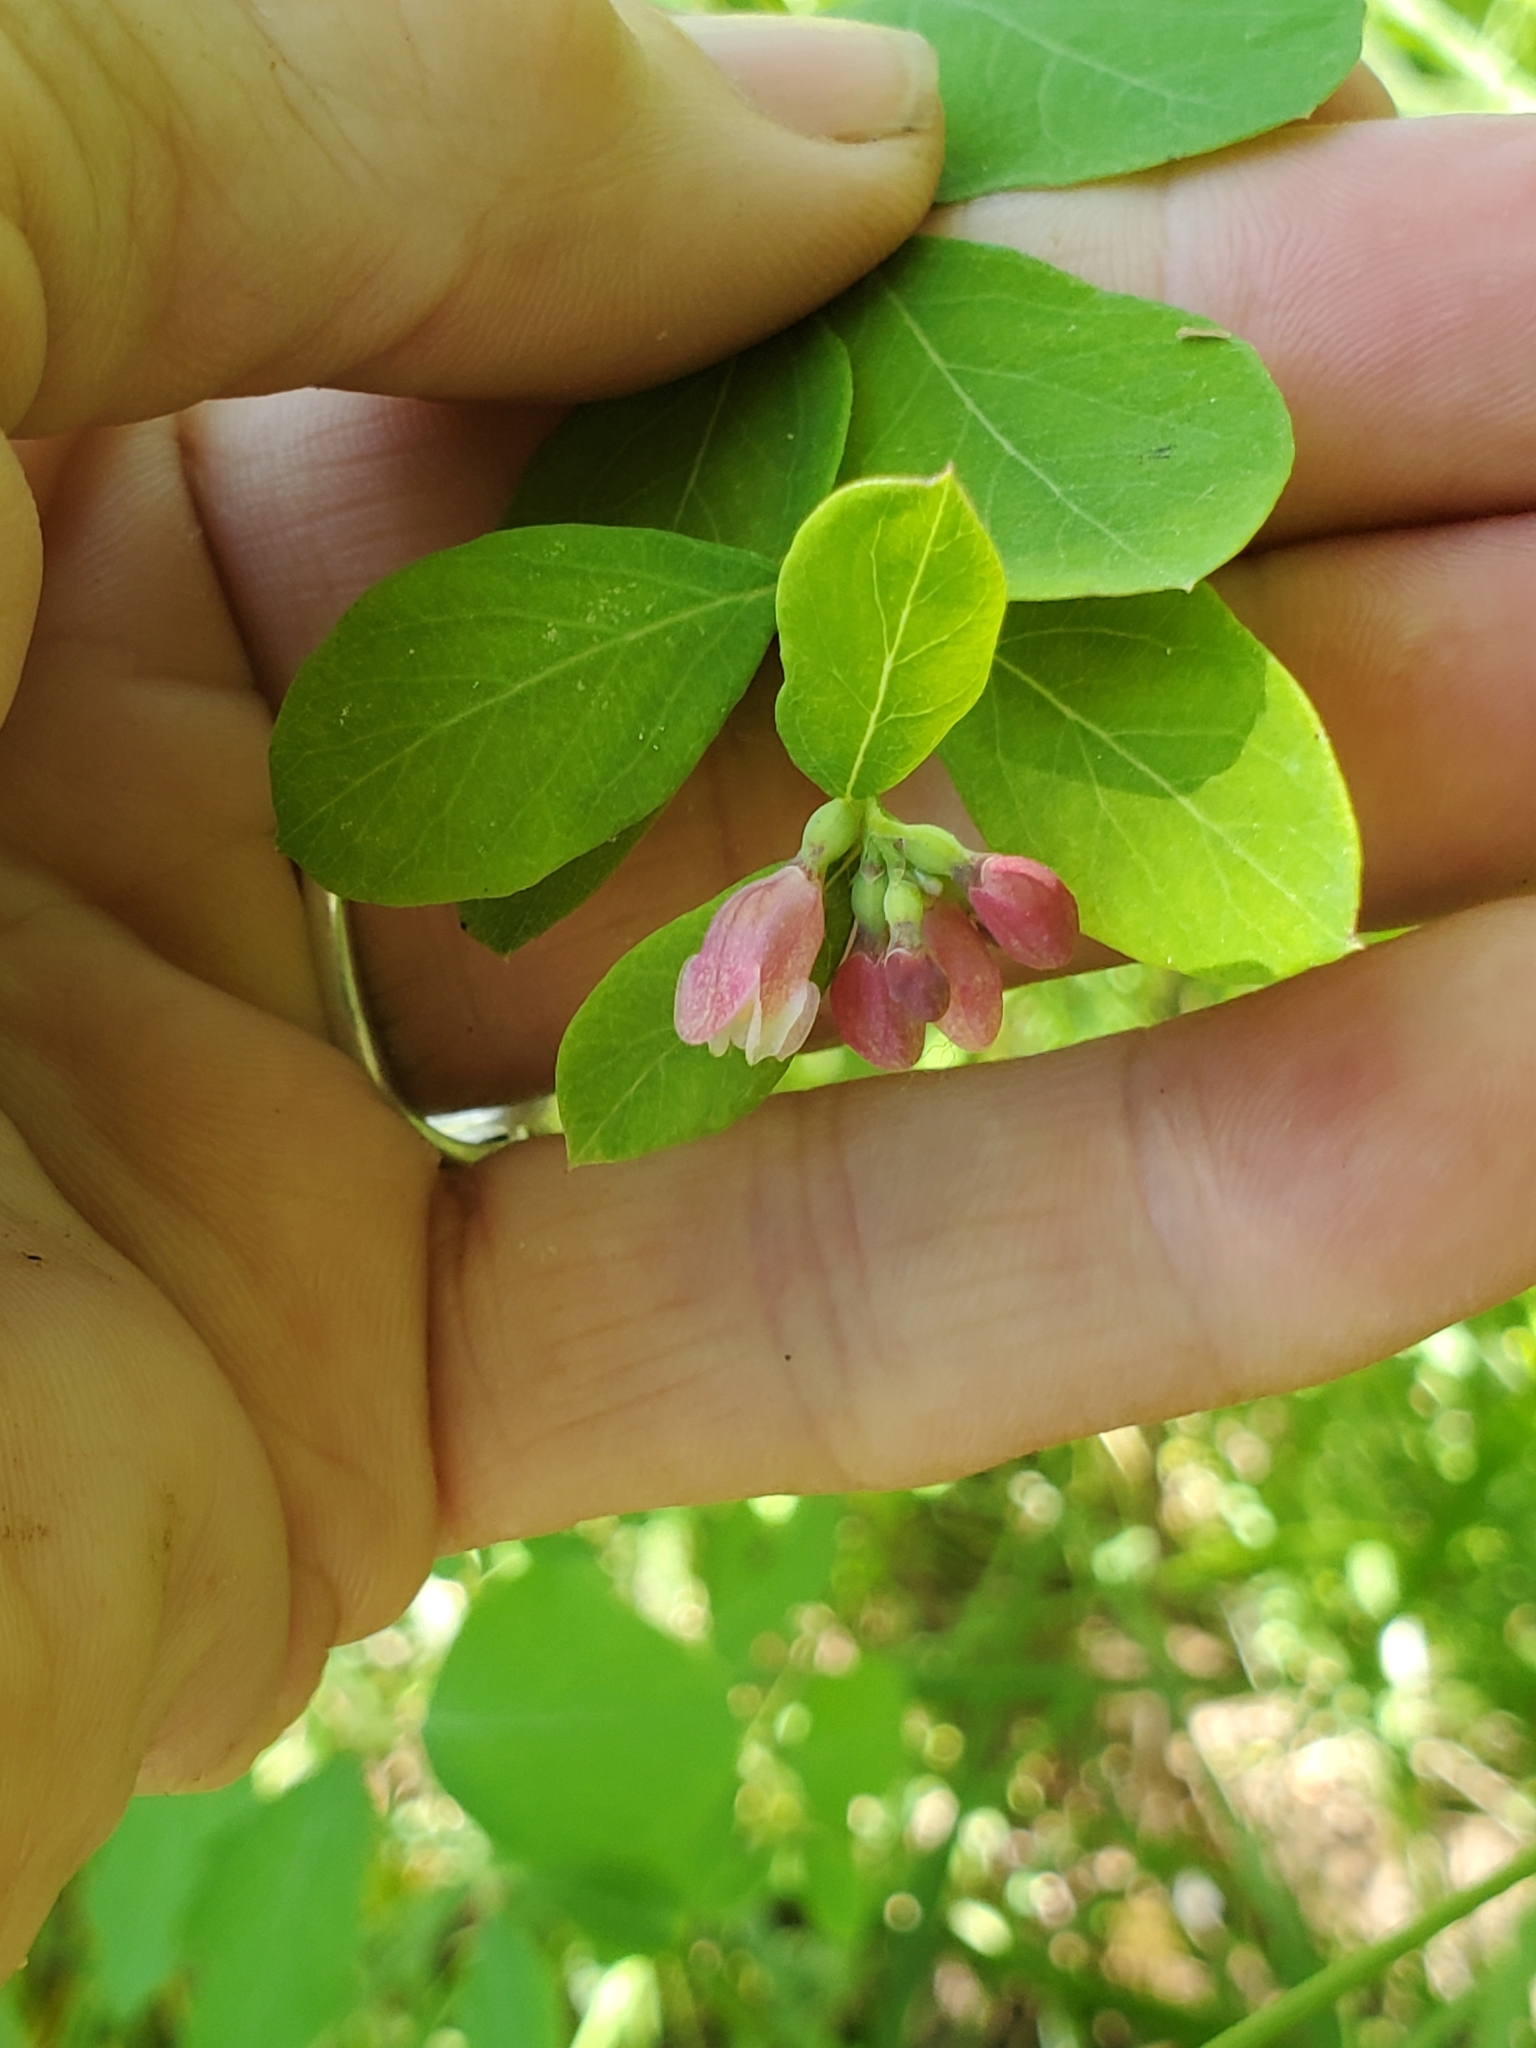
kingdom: Plantae
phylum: Tracheophyta
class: Magnoliopsida
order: Dipsacales
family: Caprifoliaceae
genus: Symphoricarpos
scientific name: Symphoricarpos albus
